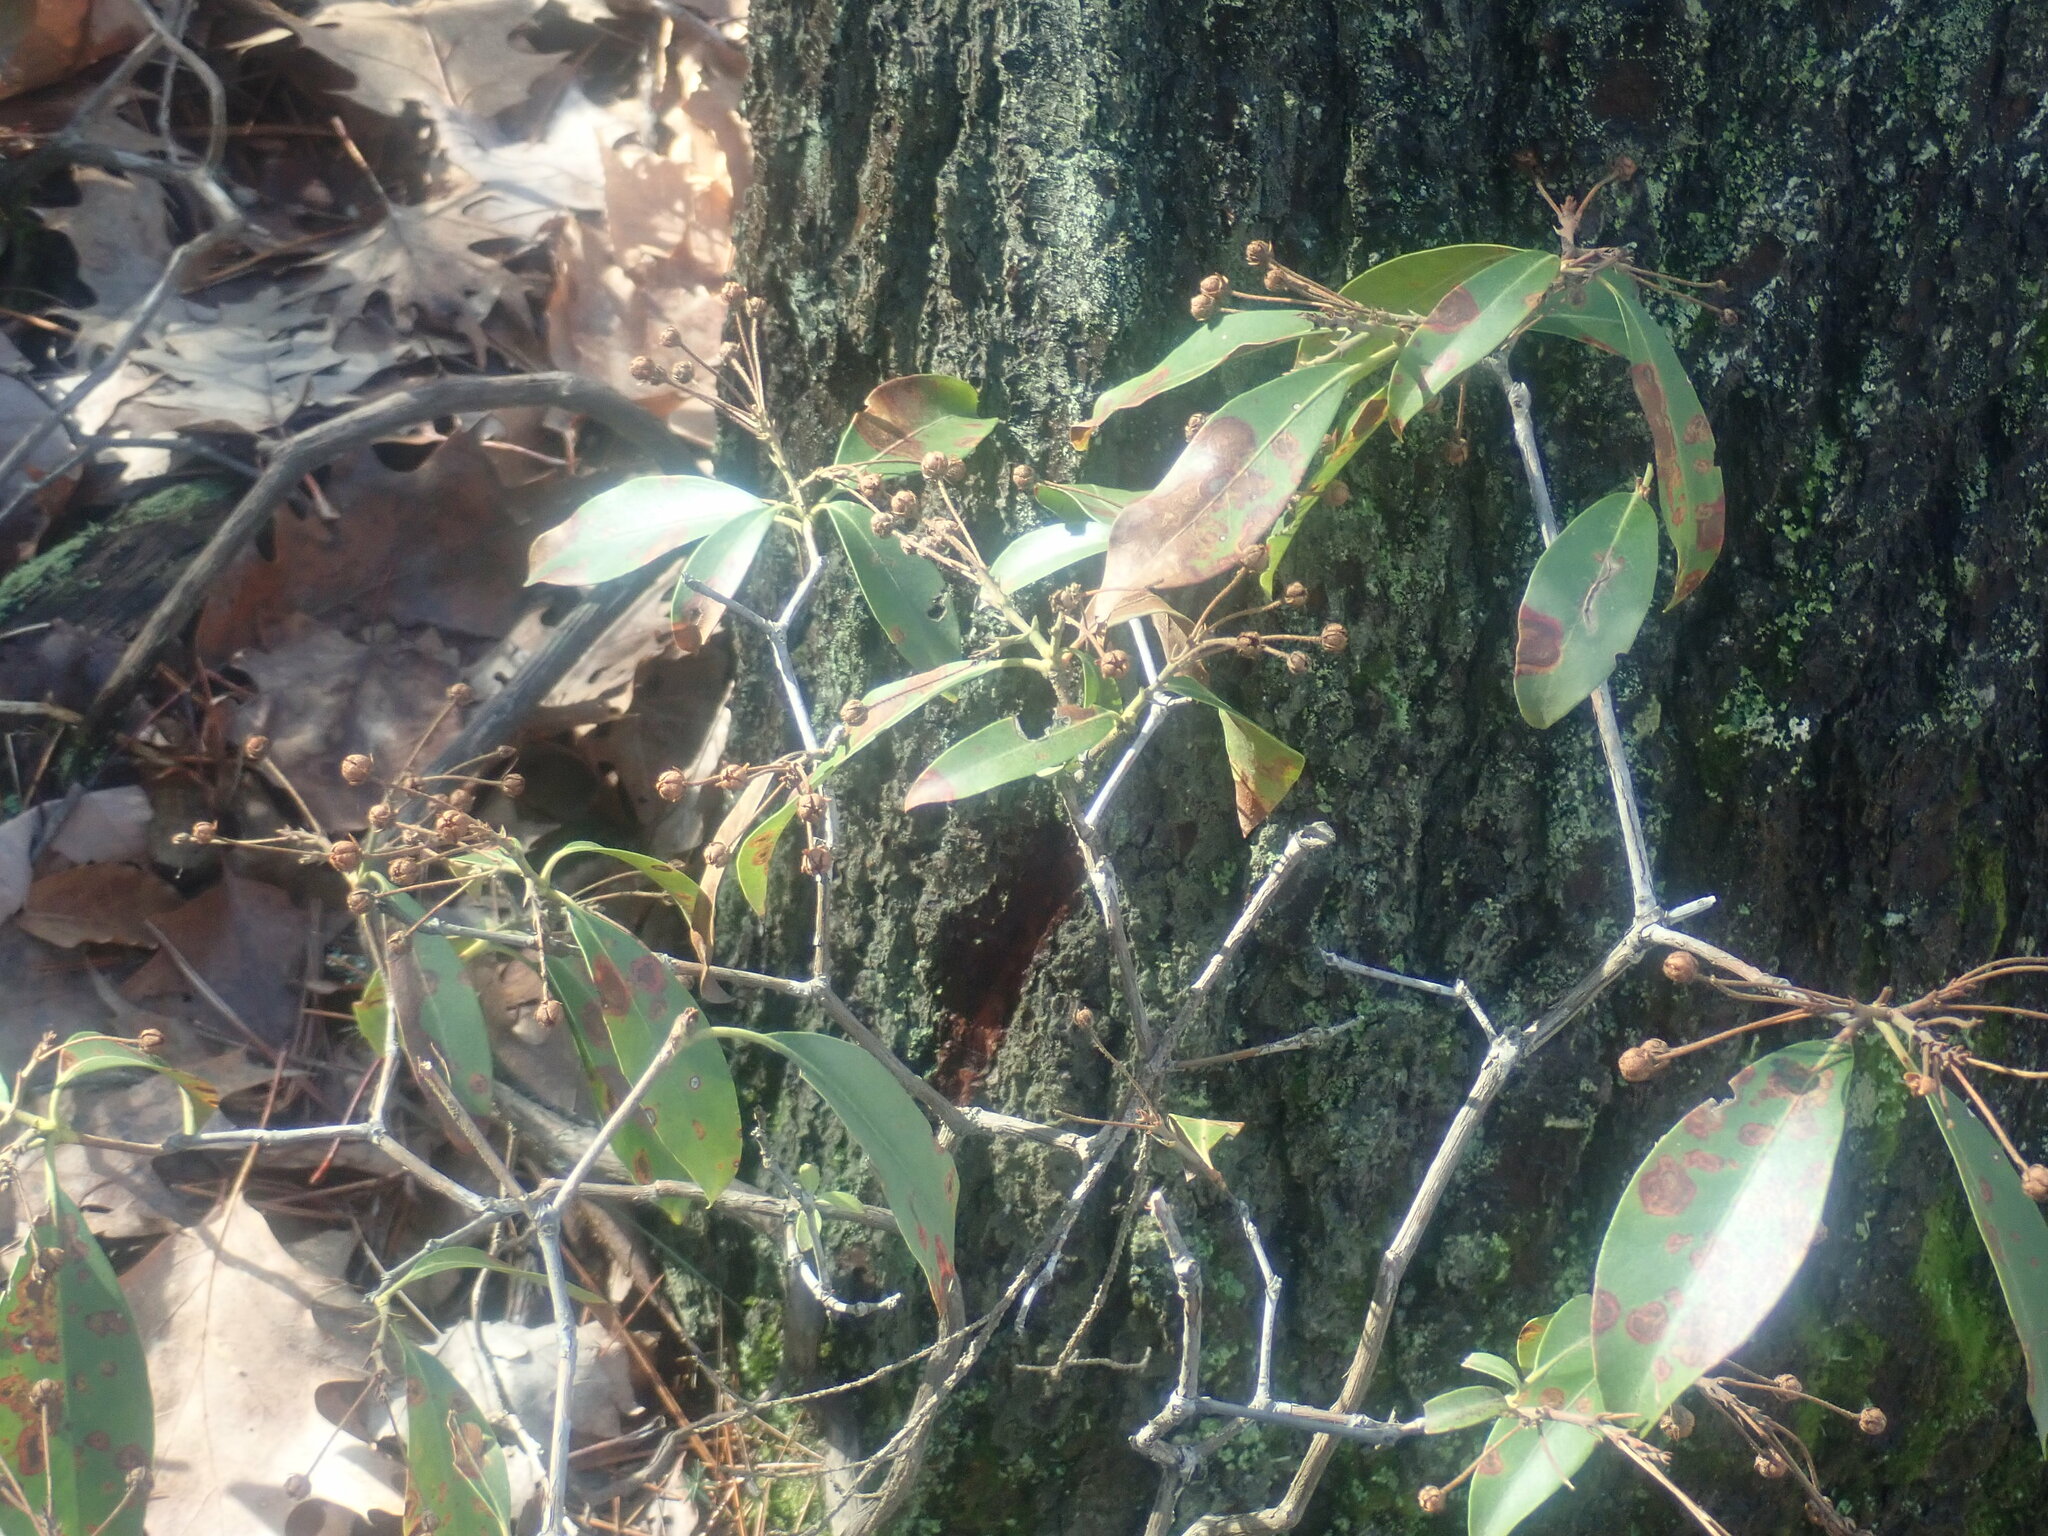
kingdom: Plantae
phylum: Tracheophyta
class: Magnoliopsida
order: Ericales
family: Ericaceae
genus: Kalmia
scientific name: Kalmia latifolia
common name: Mountain-laurel
